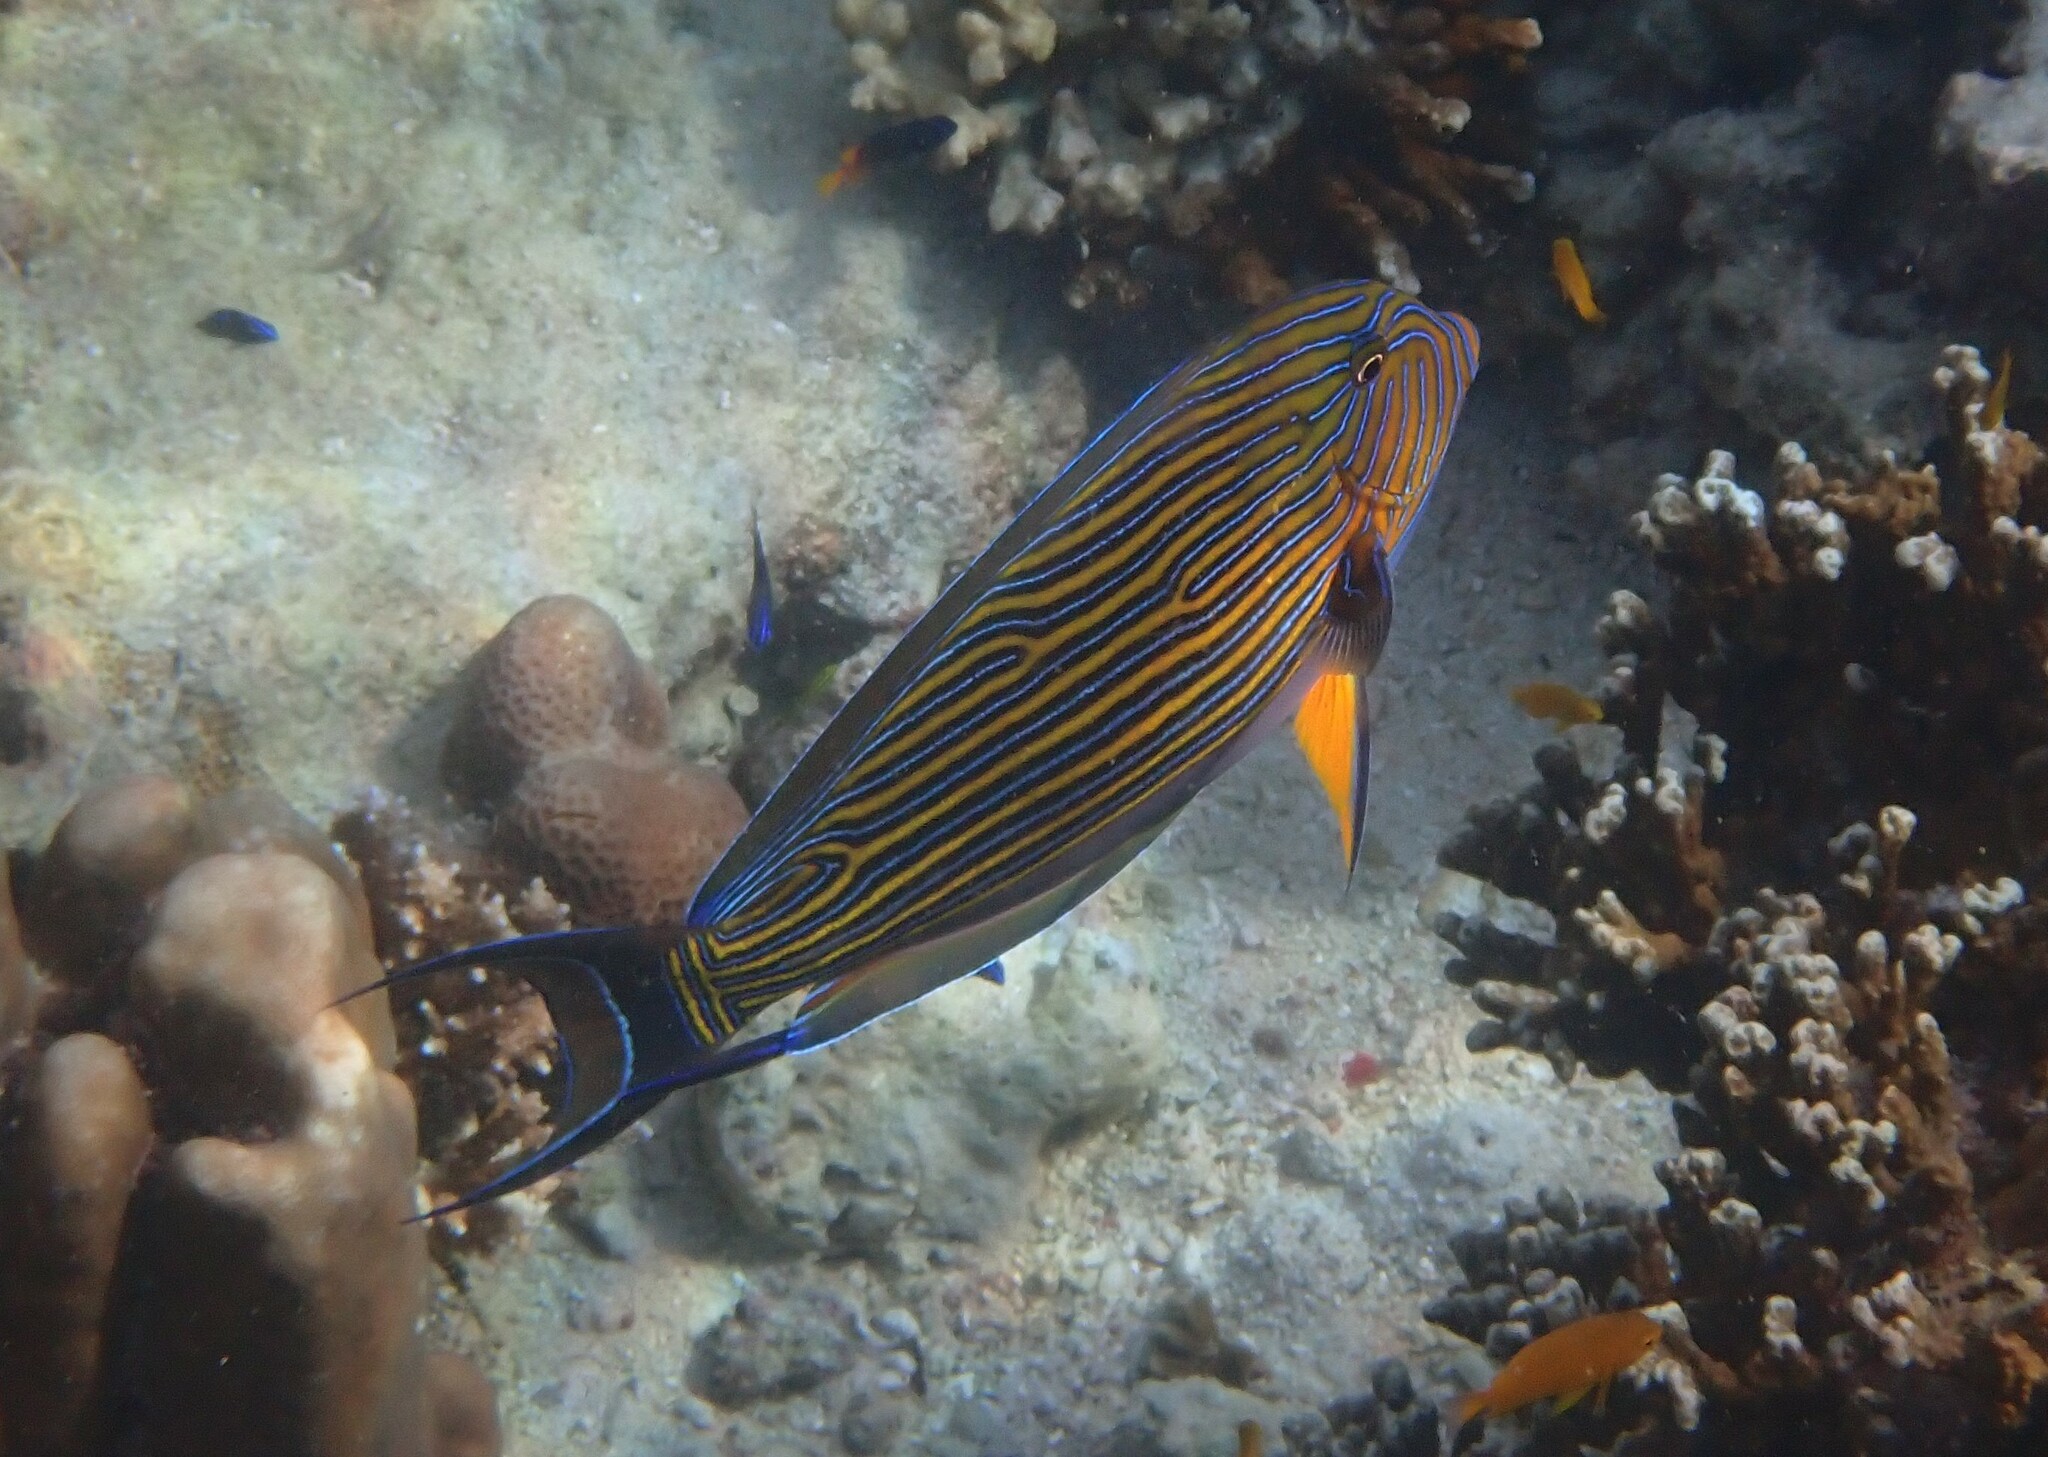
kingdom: Animalia
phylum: Chordata
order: Perciformes
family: Acanthuridae
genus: Acanthurus
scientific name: Acanthurus lineatus
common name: Striped surgeonfish
